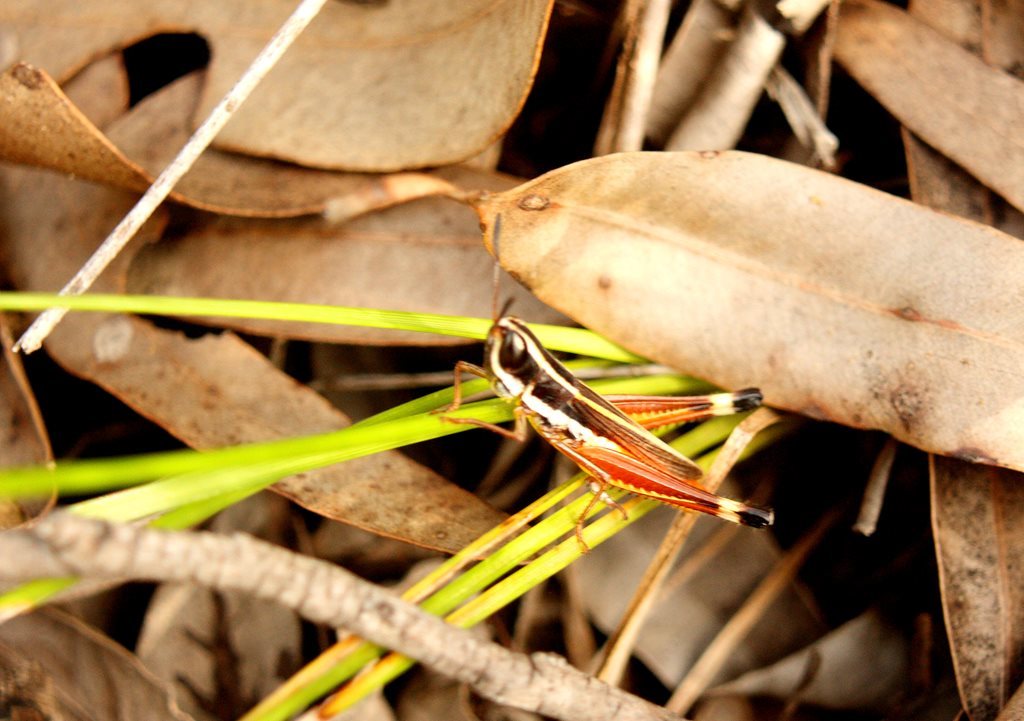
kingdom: Animalia
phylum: Arthropoda
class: Insecta
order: Orthoptera
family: Acrididae
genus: Macrotona
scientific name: Macrotona mjobergi
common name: Handsome macrotona
